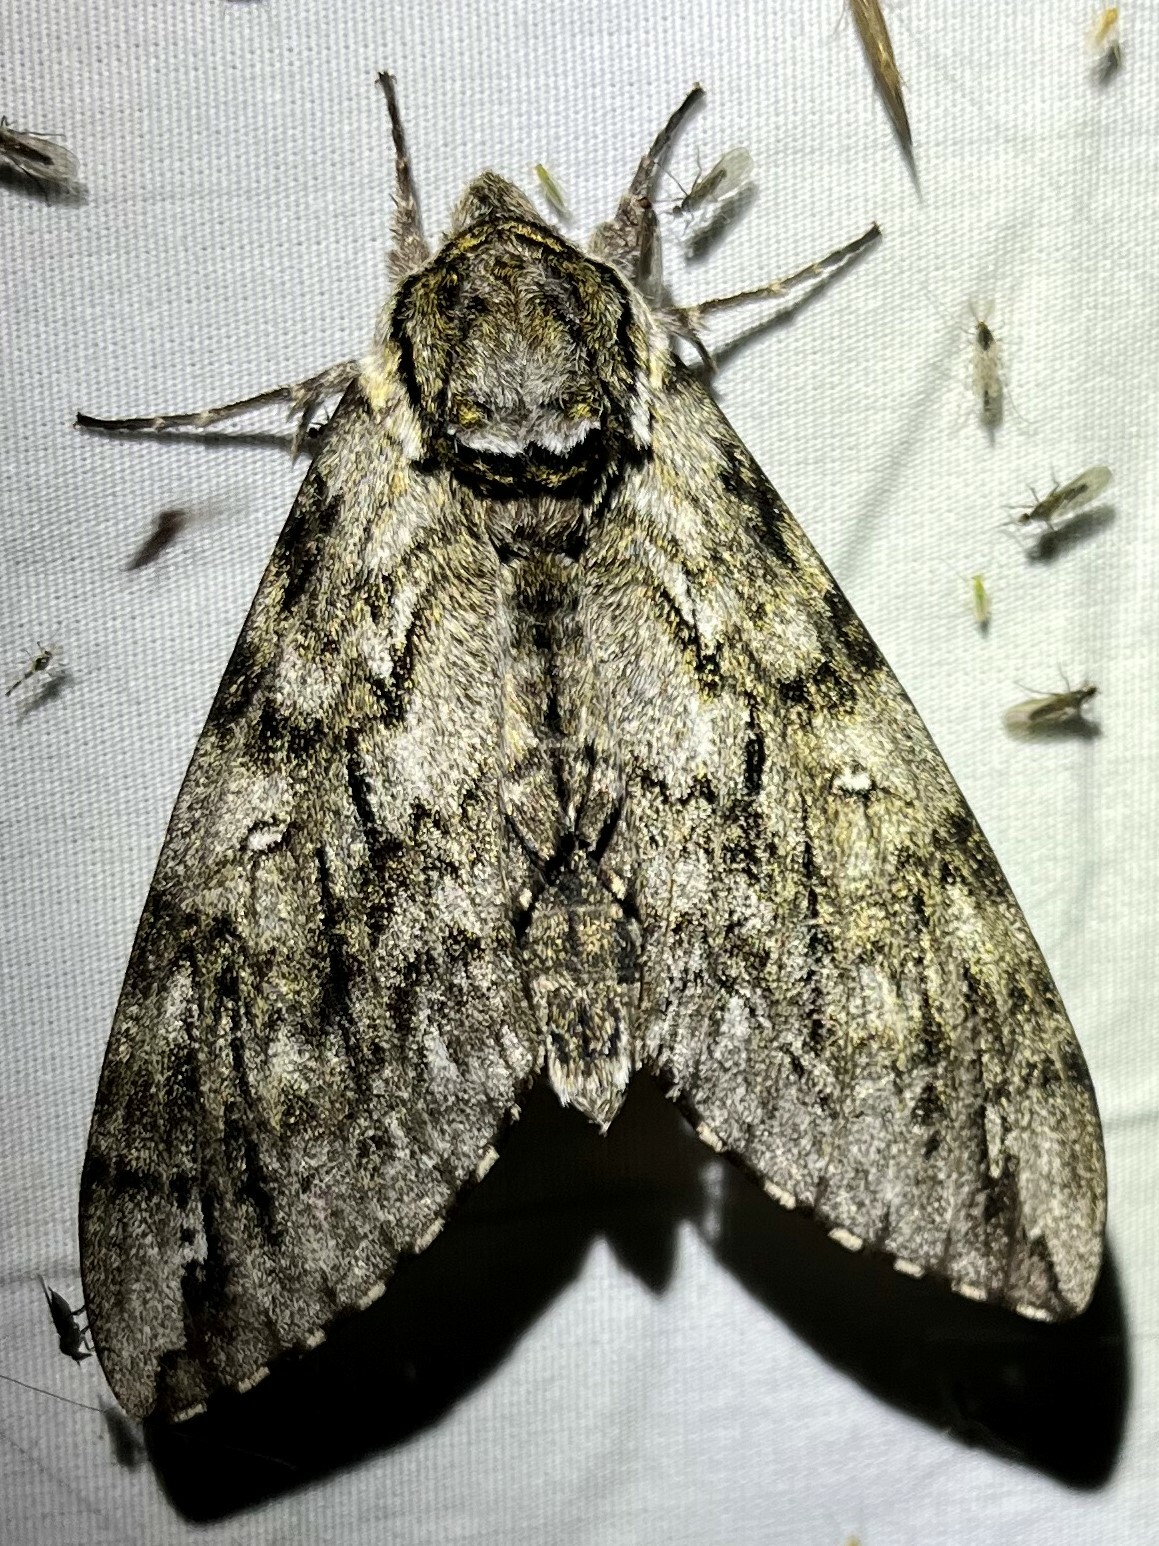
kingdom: Animalia
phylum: Arthropoda
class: Insecta
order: Lepidoptera
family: Sphingidae
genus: Ceratomia
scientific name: Ceratomia undulosa
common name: Waved sphinx
